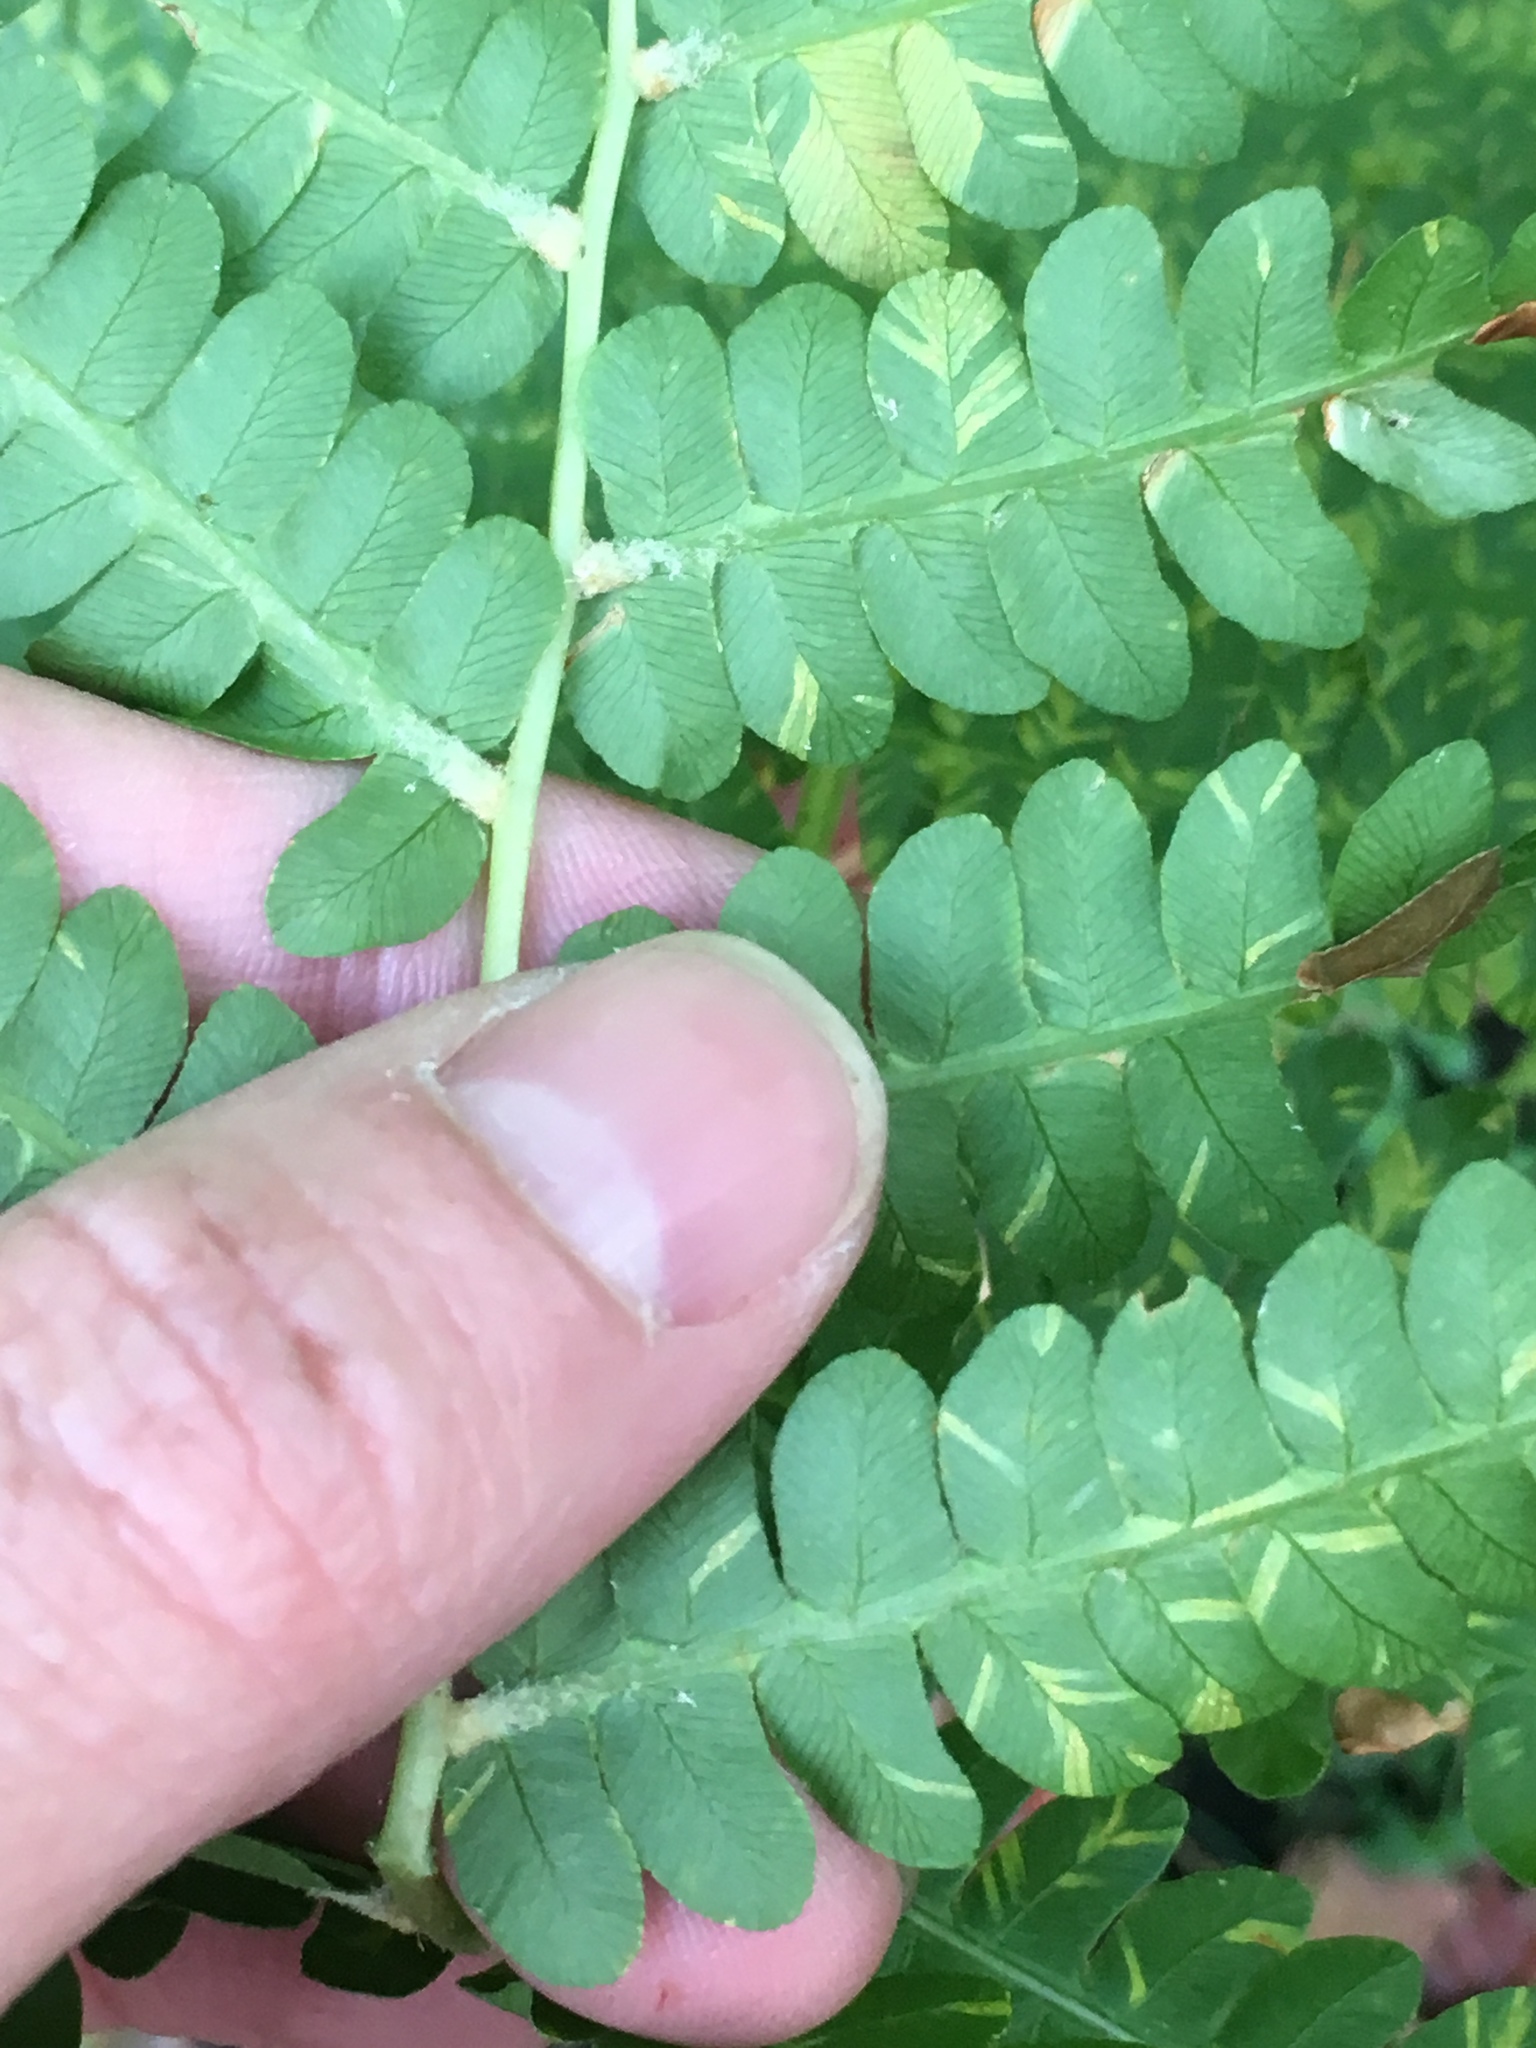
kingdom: Plantae
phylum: Tracheophyta
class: Polypodiopsida
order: Osmundales
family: Osmundaceae
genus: Osmundastrum
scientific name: Osmundastrum cinnamomeum
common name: Cinnamon fern
